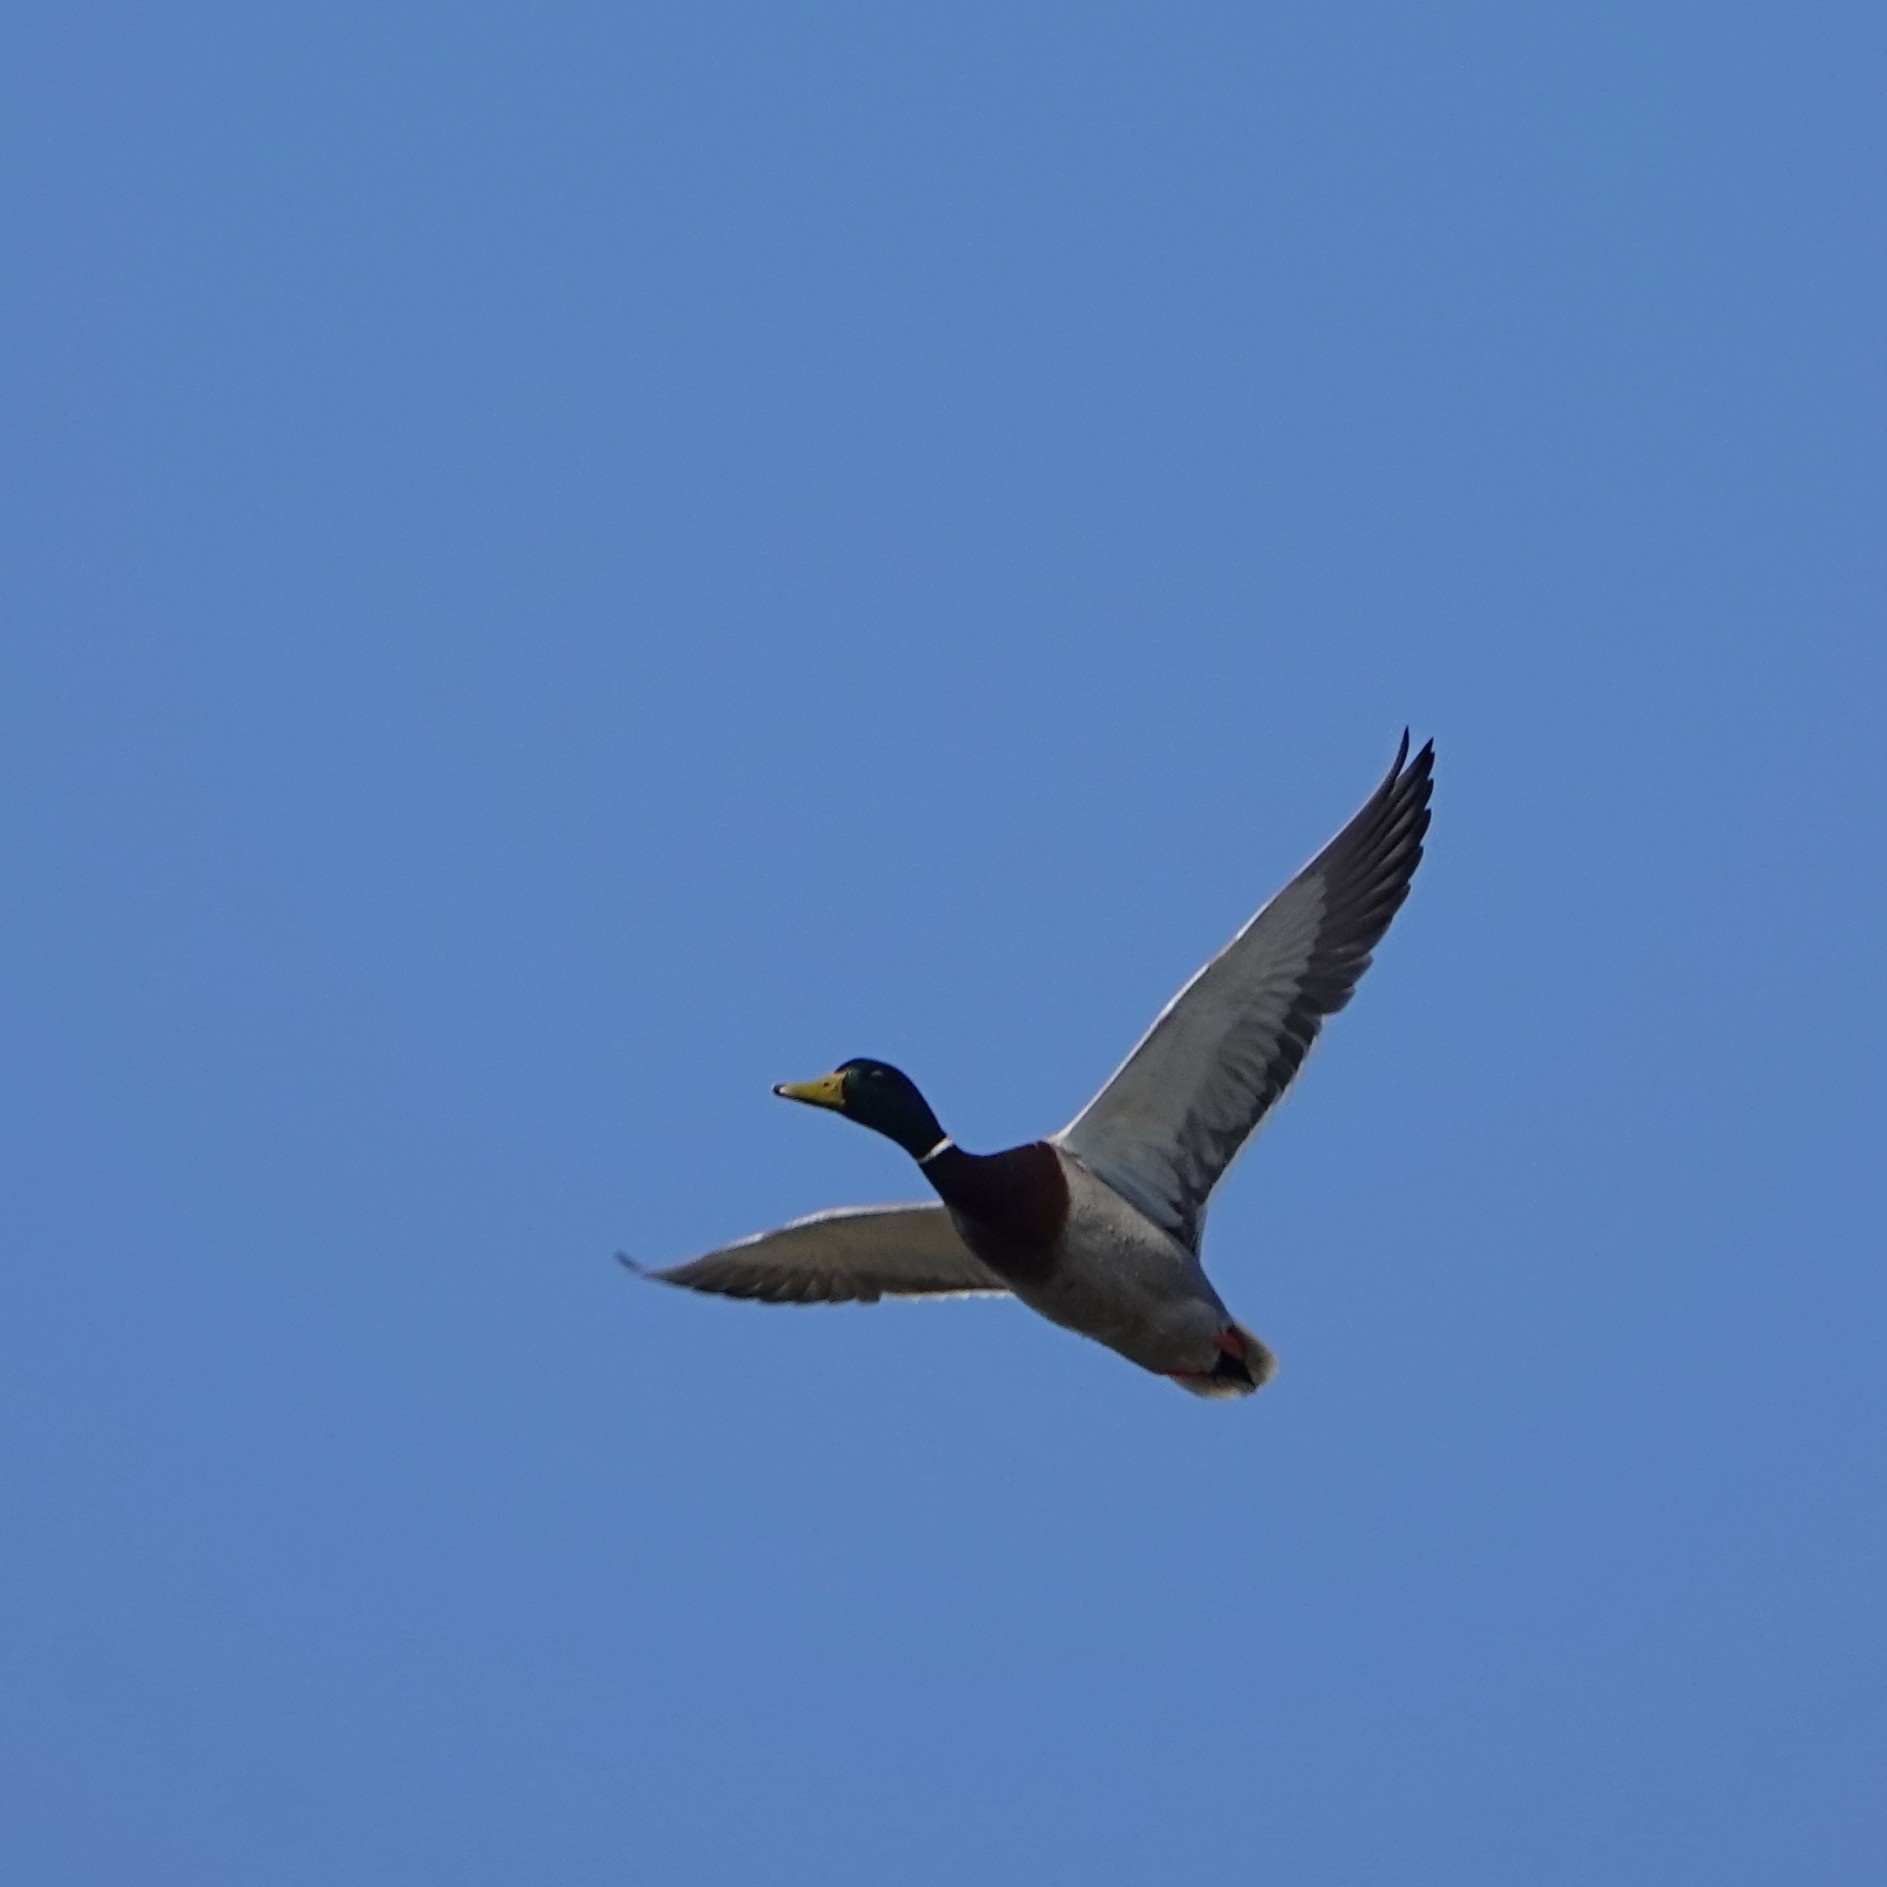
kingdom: Animalia
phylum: Chordata
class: Aves
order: Anseriformes
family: Anatidae
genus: Anas
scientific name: Anas platyrhynchos
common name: Mallard
